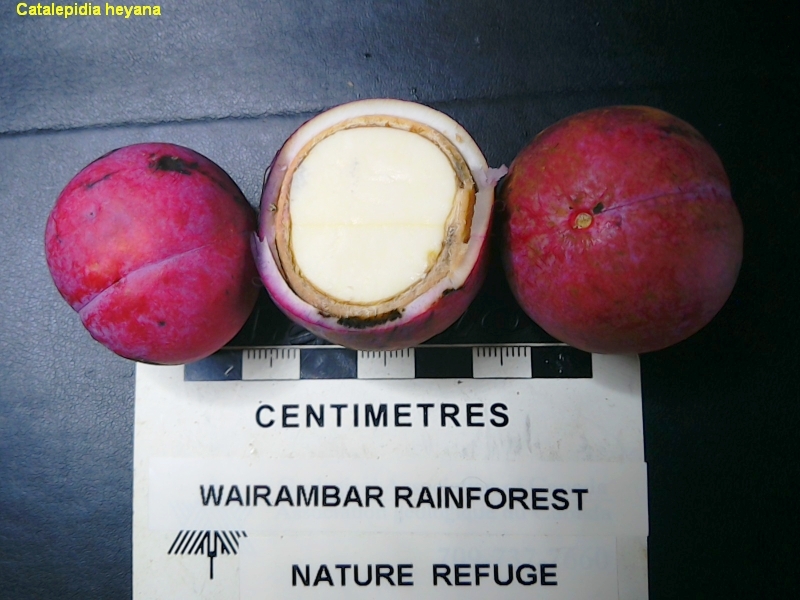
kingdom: Plantae
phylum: Tracheophyta
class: Magnoliopsida
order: Proteales
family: Proteaceae
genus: Catalepidia
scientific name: Catalepidia heyana
